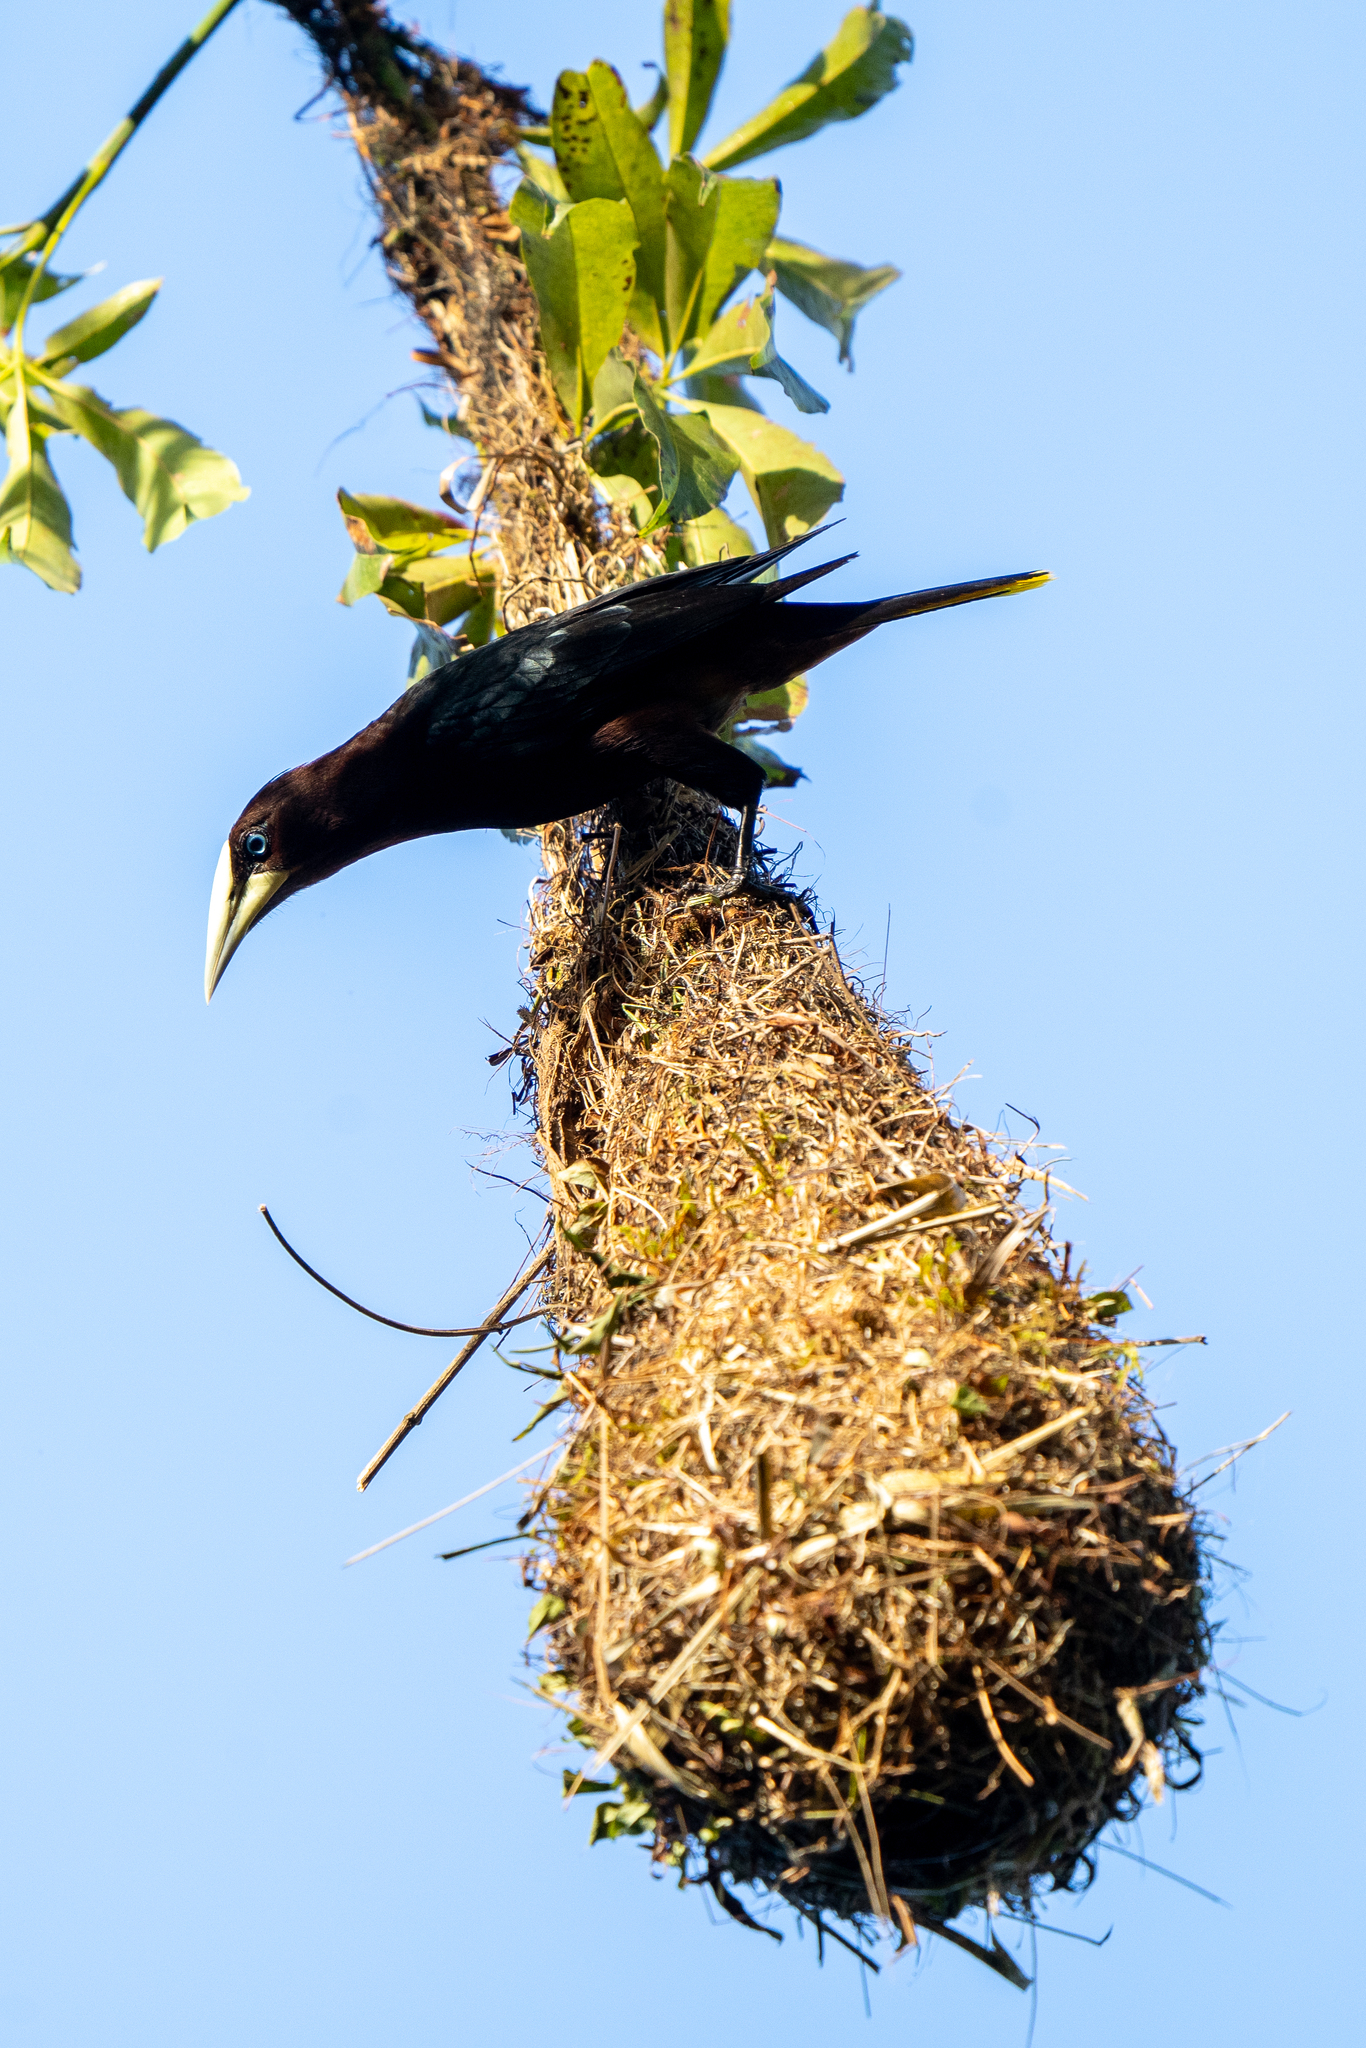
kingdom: Animalia
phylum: Chordata
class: Aves
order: Passeriformes
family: Icteridae
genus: Psarocolius
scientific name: Psarocolius wagleri
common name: Chestnut-headed oropendola
